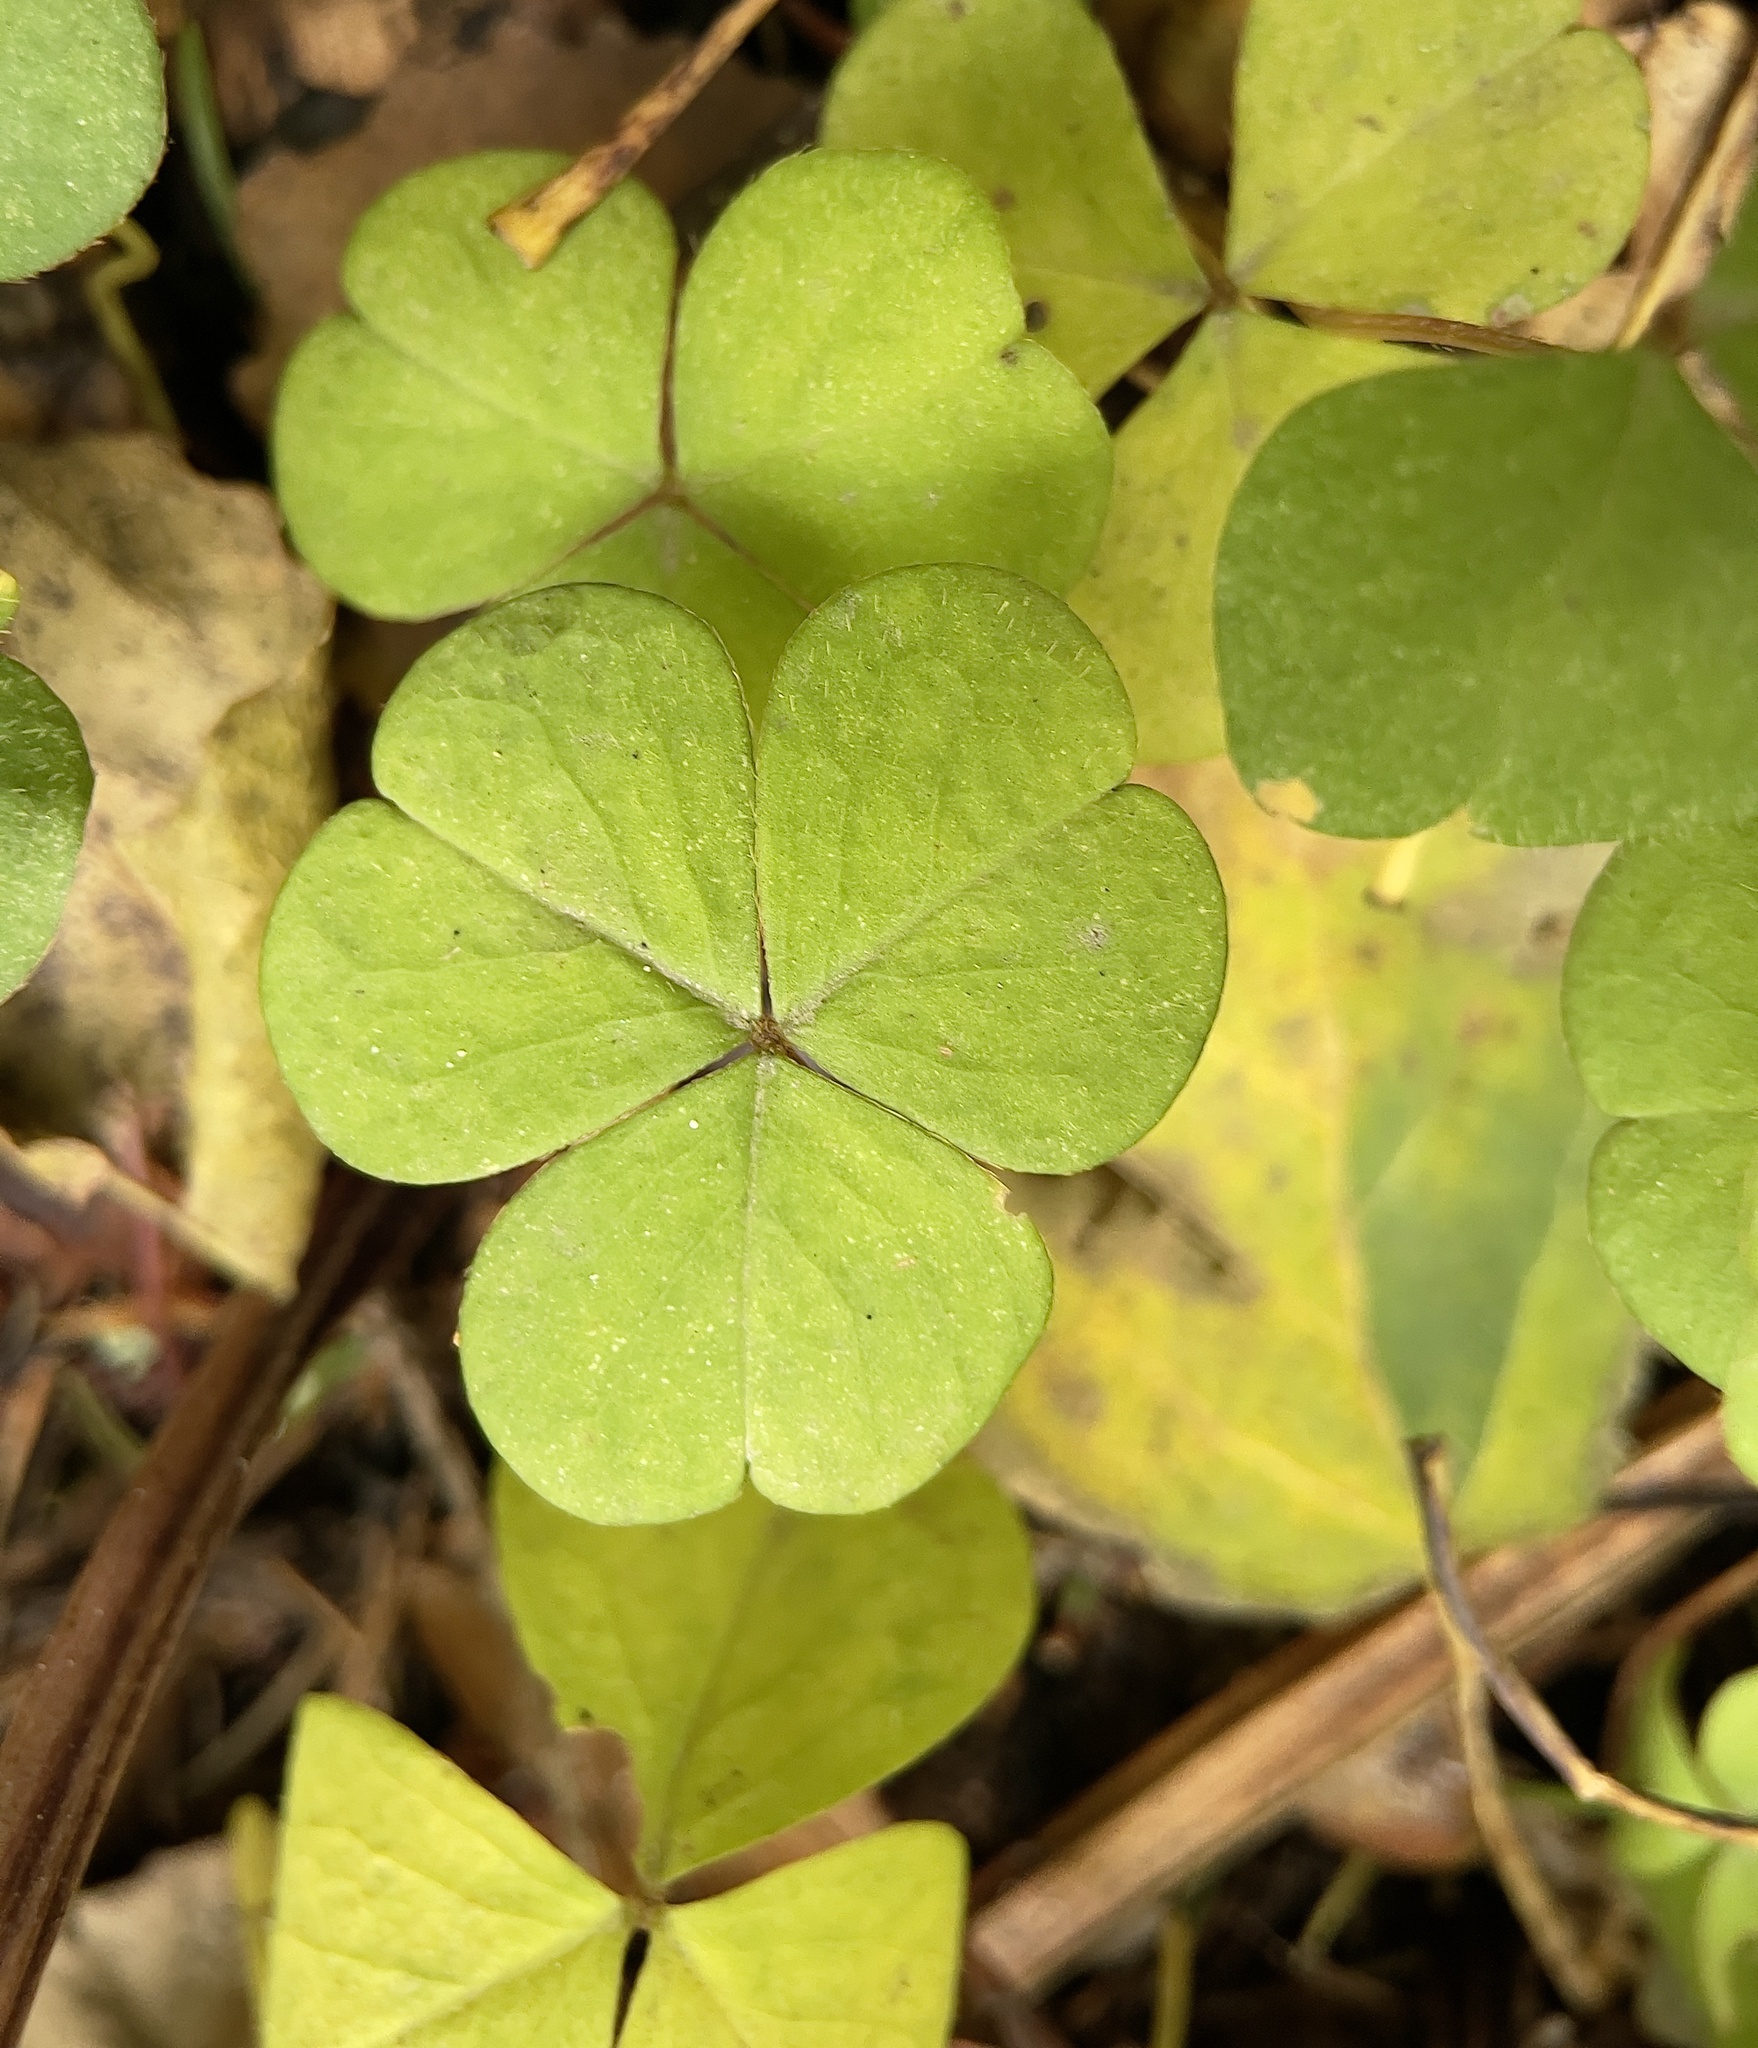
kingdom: Plantae
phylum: Tracheophyta
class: Magnoliopsida
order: Oxalidales
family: Oxalidaceae
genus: Oxalis
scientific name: Oxalis acetosella
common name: Wood-sorrel
